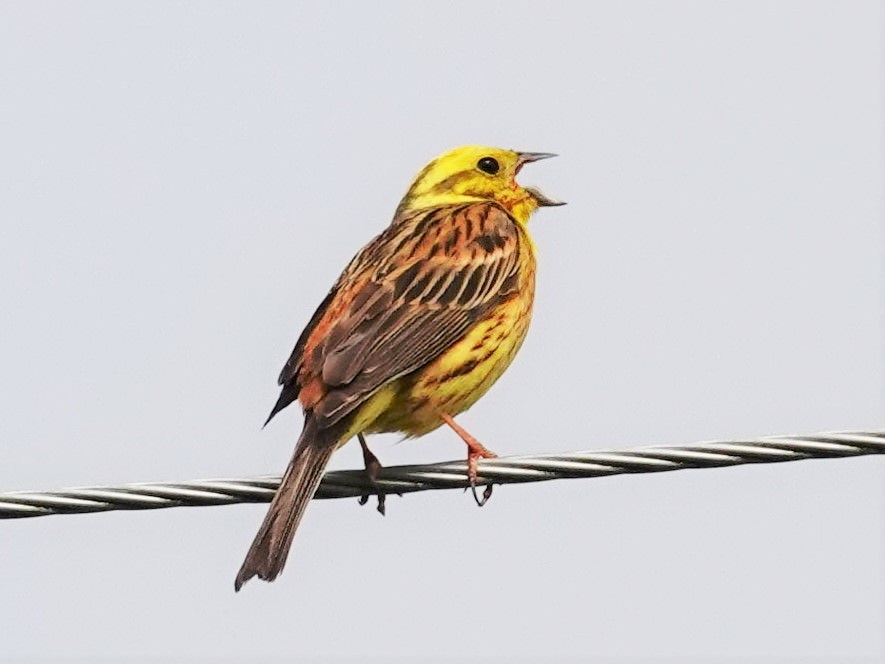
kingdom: Animalia
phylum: Chordata
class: Aves
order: Passeriformes
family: Emberizidae
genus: Emberiza
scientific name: Emberiza citrinella
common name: Yellowhammer
